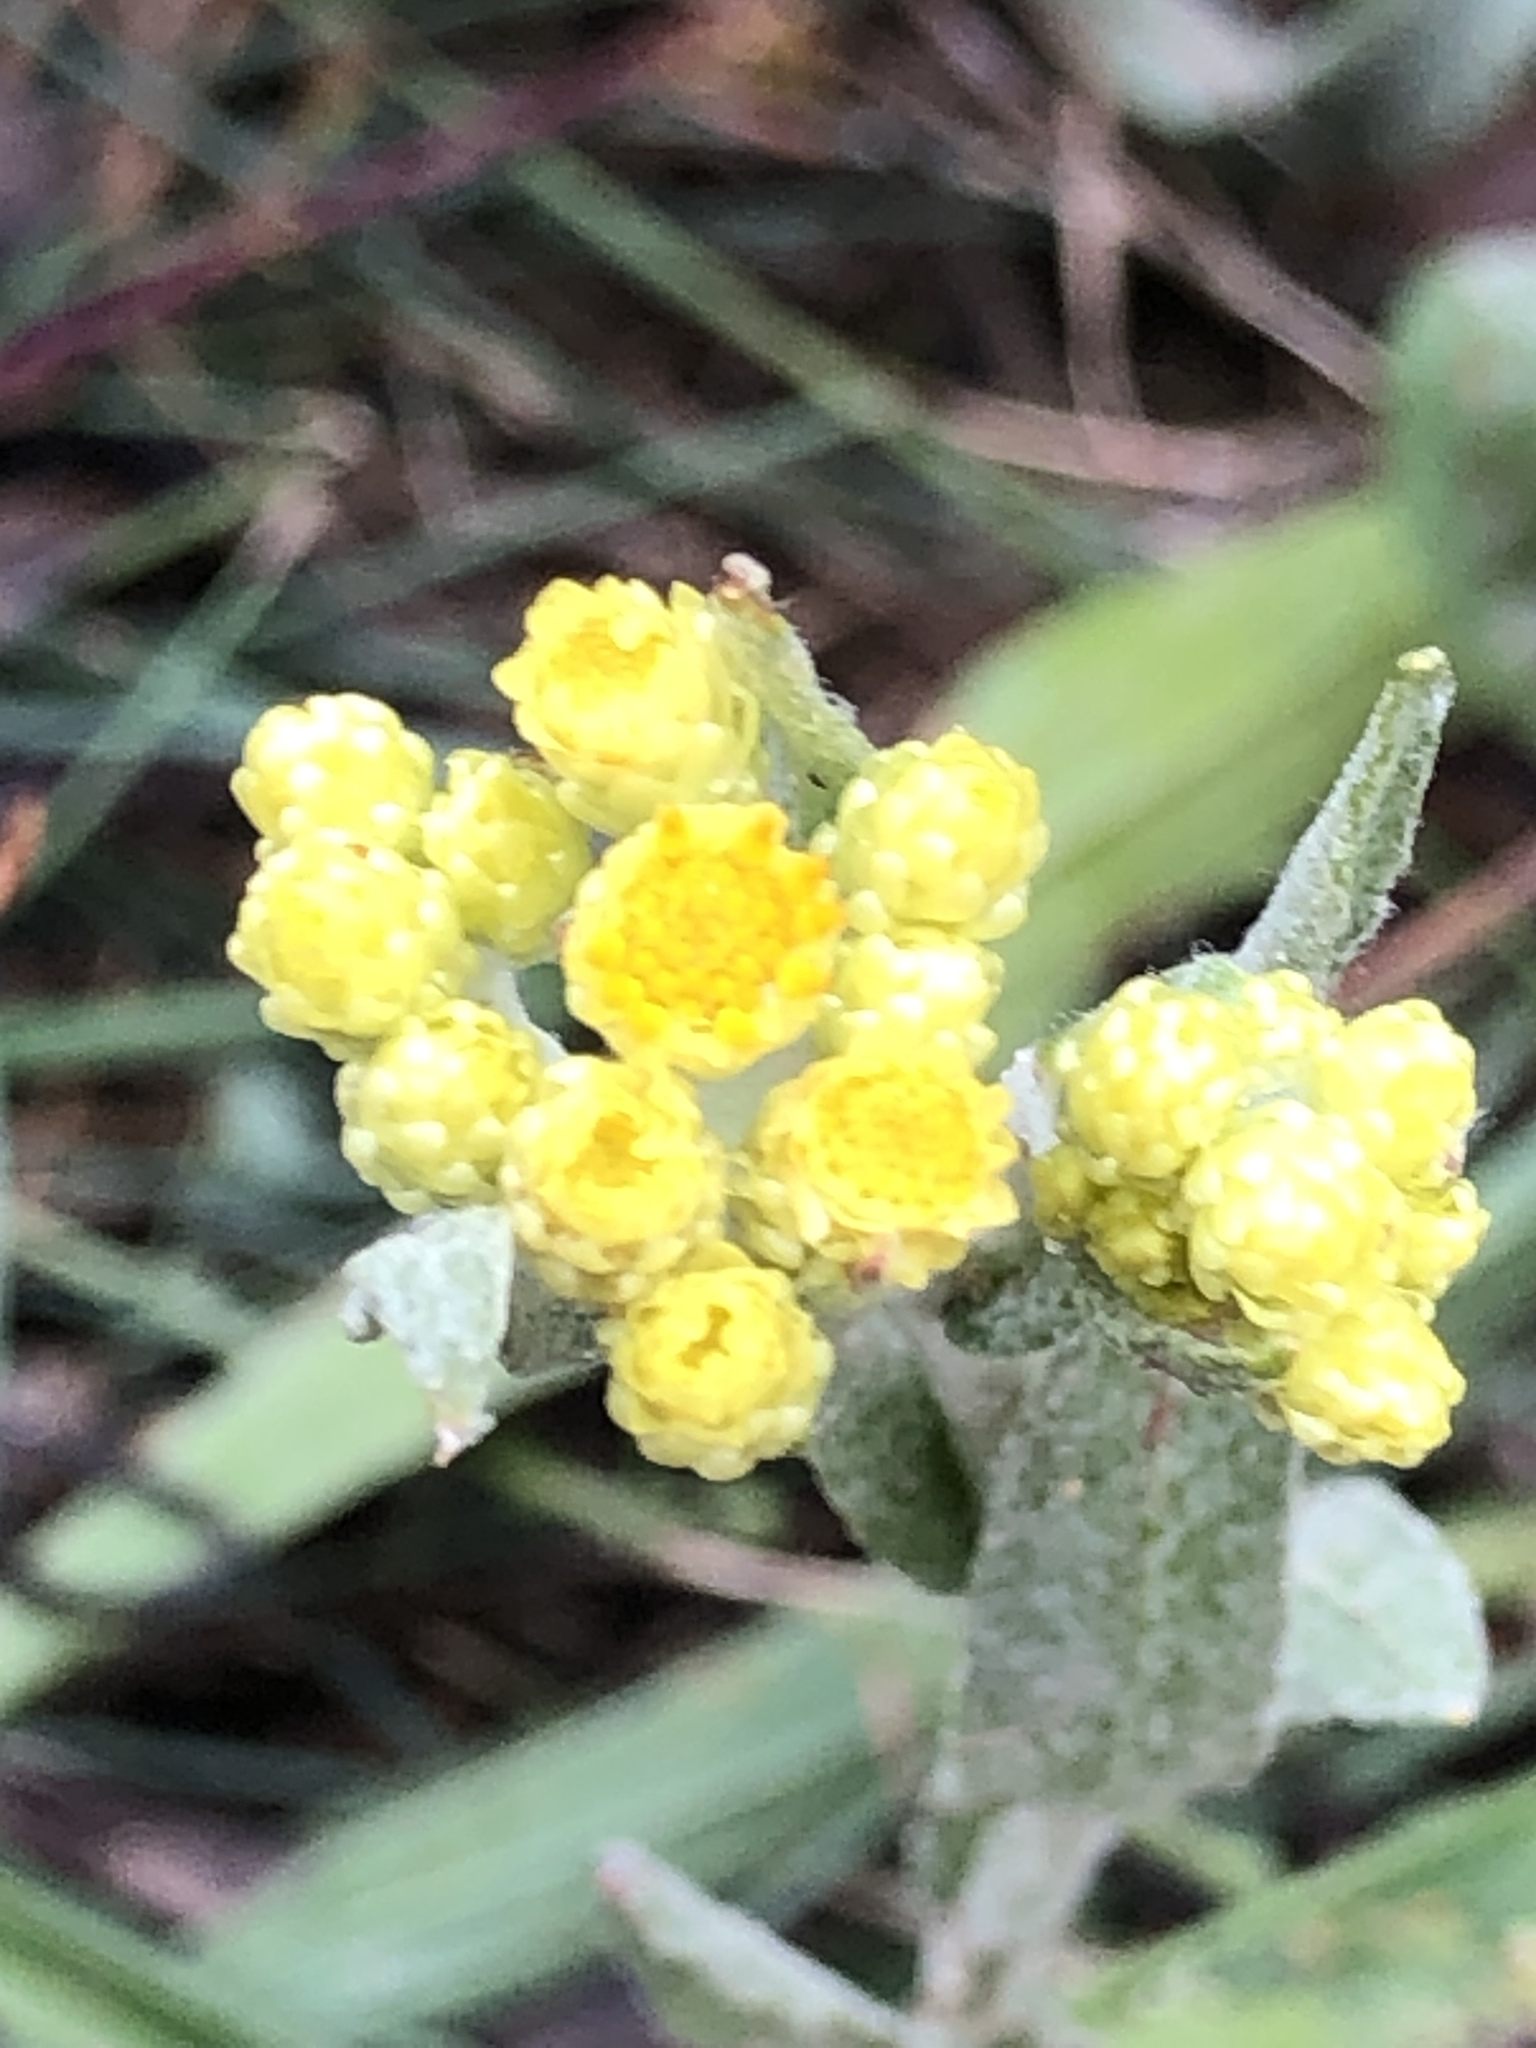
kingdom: Plantae
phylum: Tracheophyta
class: Magnoliopsida
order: Asterales
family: Asteraceae
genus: Helichrysum
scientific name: Helichrysum arenarium
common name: Strawflower
